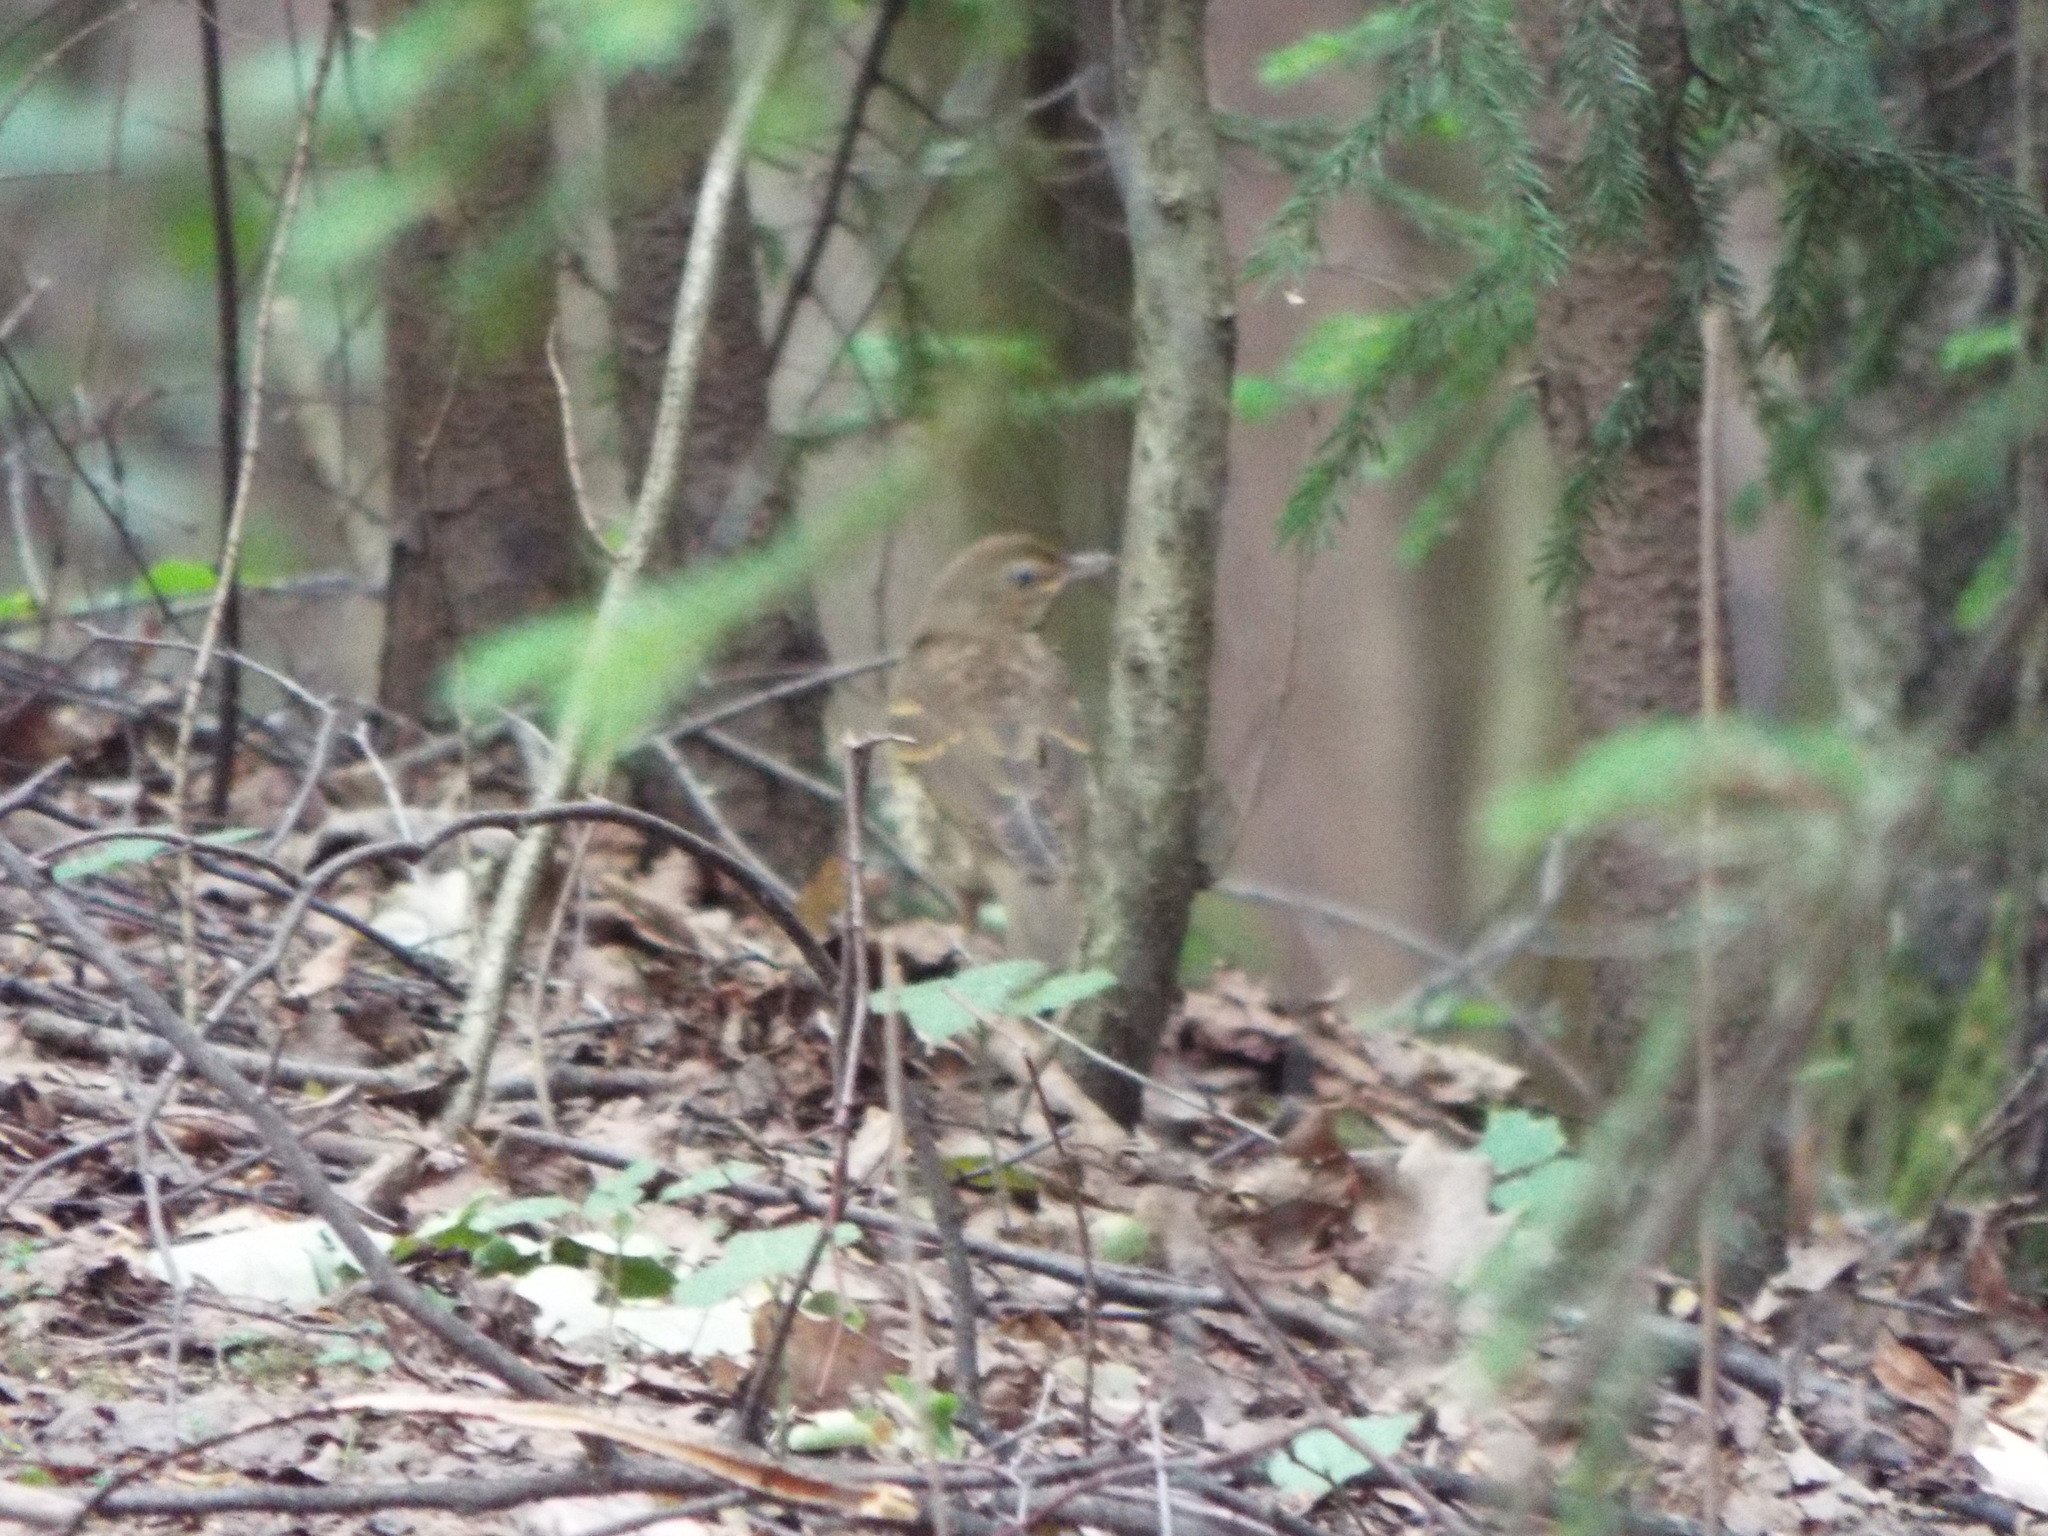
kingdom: Animalia
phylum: Chordata
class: Aves
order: Passeriformes
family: Turdidae
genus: Turdus
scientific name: Turdus philomelos
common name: Song thrush
